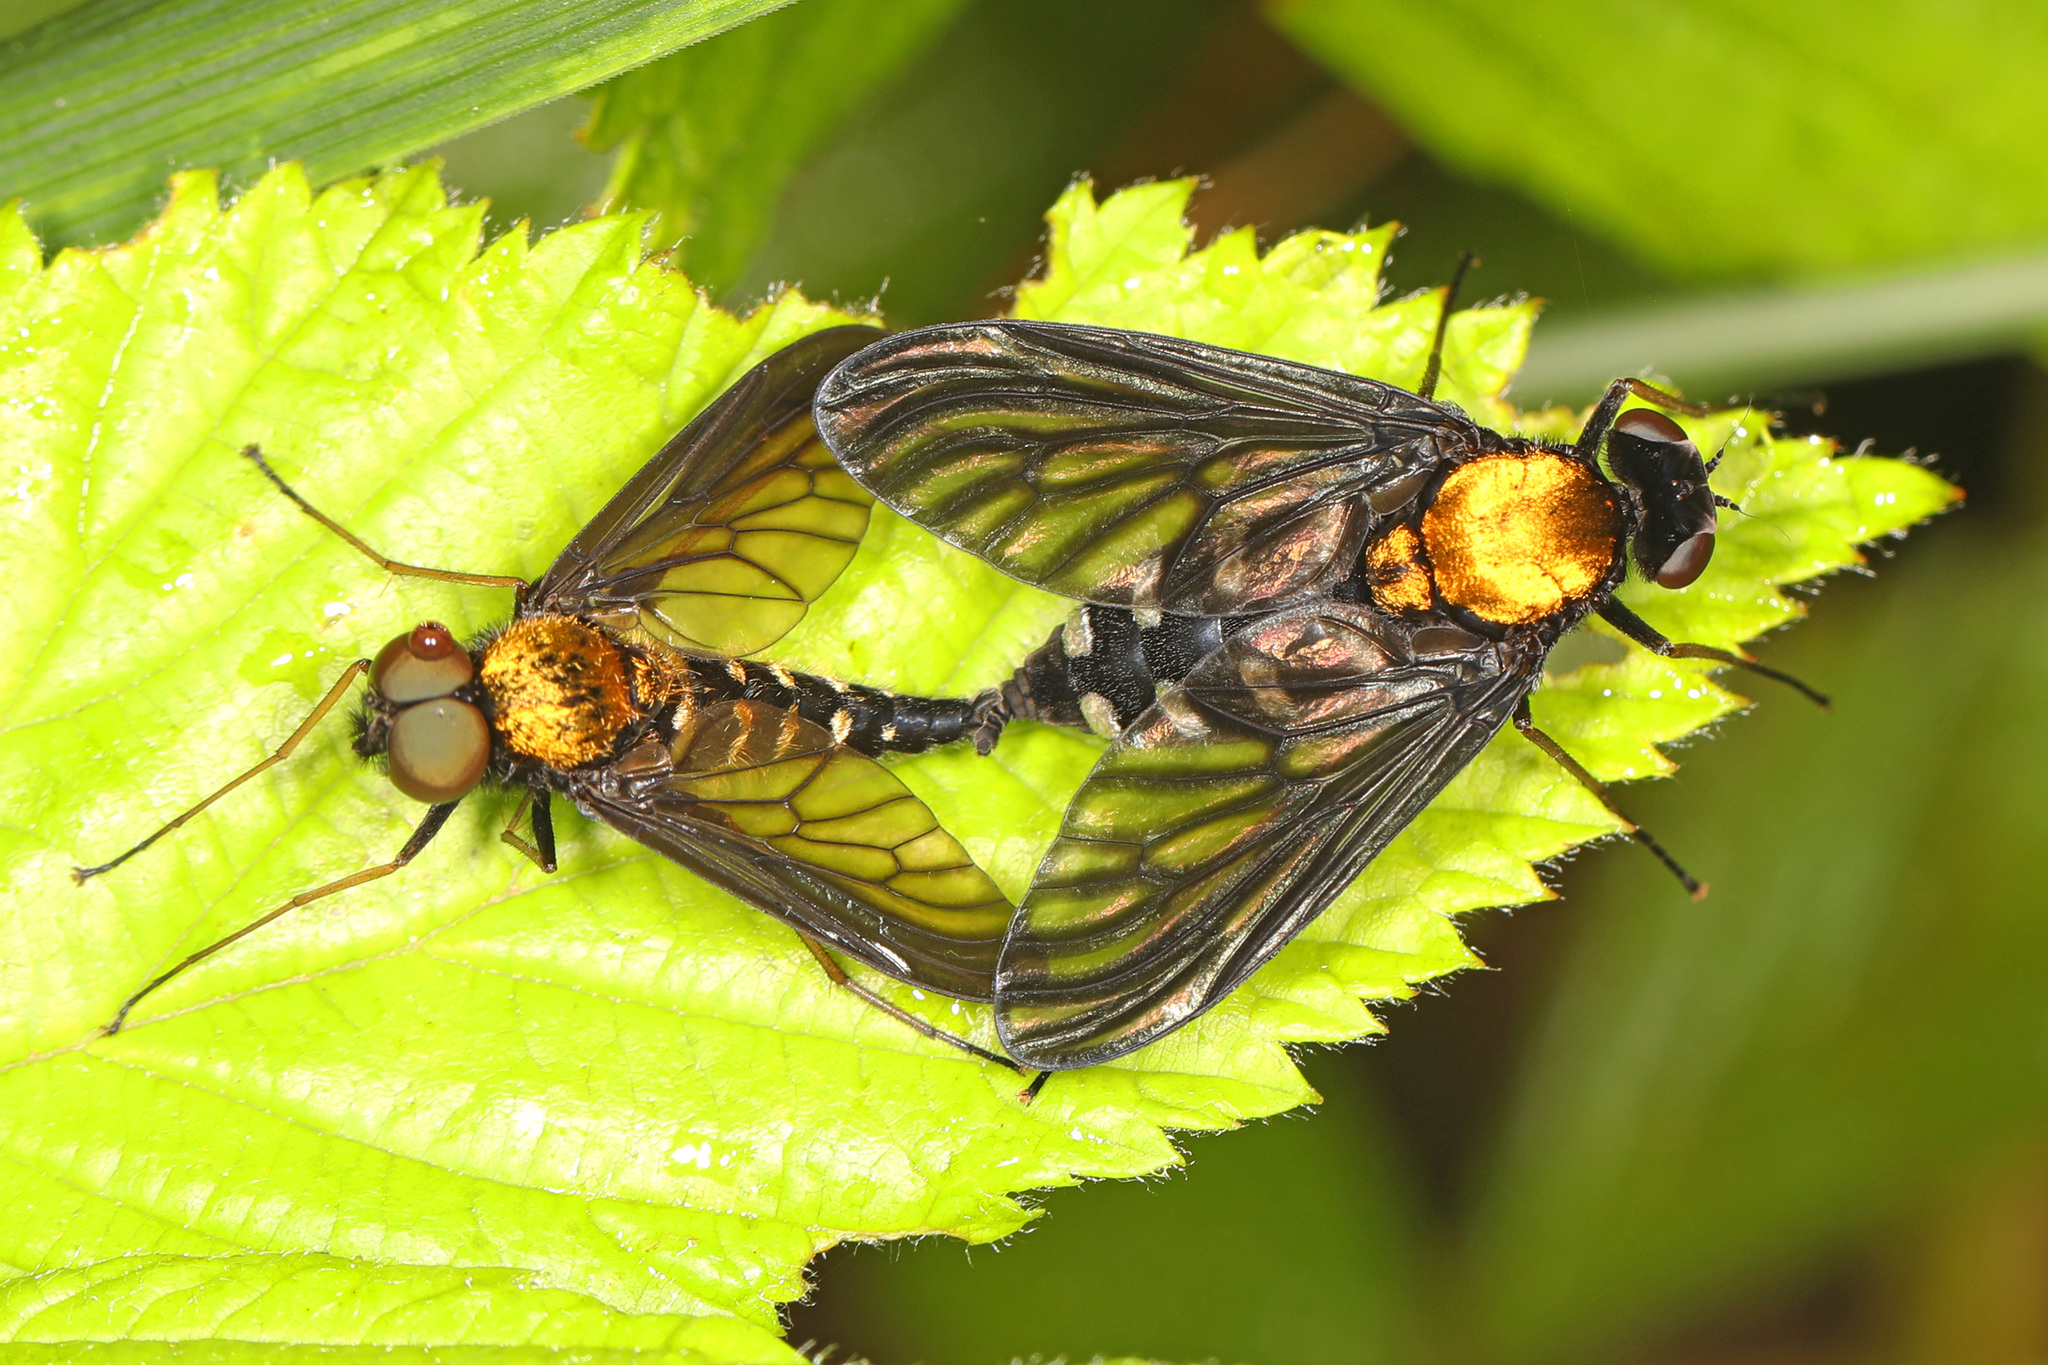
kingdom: Animalia
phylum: Arthropoda
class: Insecta
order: Diptera
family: Rhagionidae
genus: Chrysopilus
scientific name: Chrysopilus thoracicus
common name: Golden-backed snipe fly
